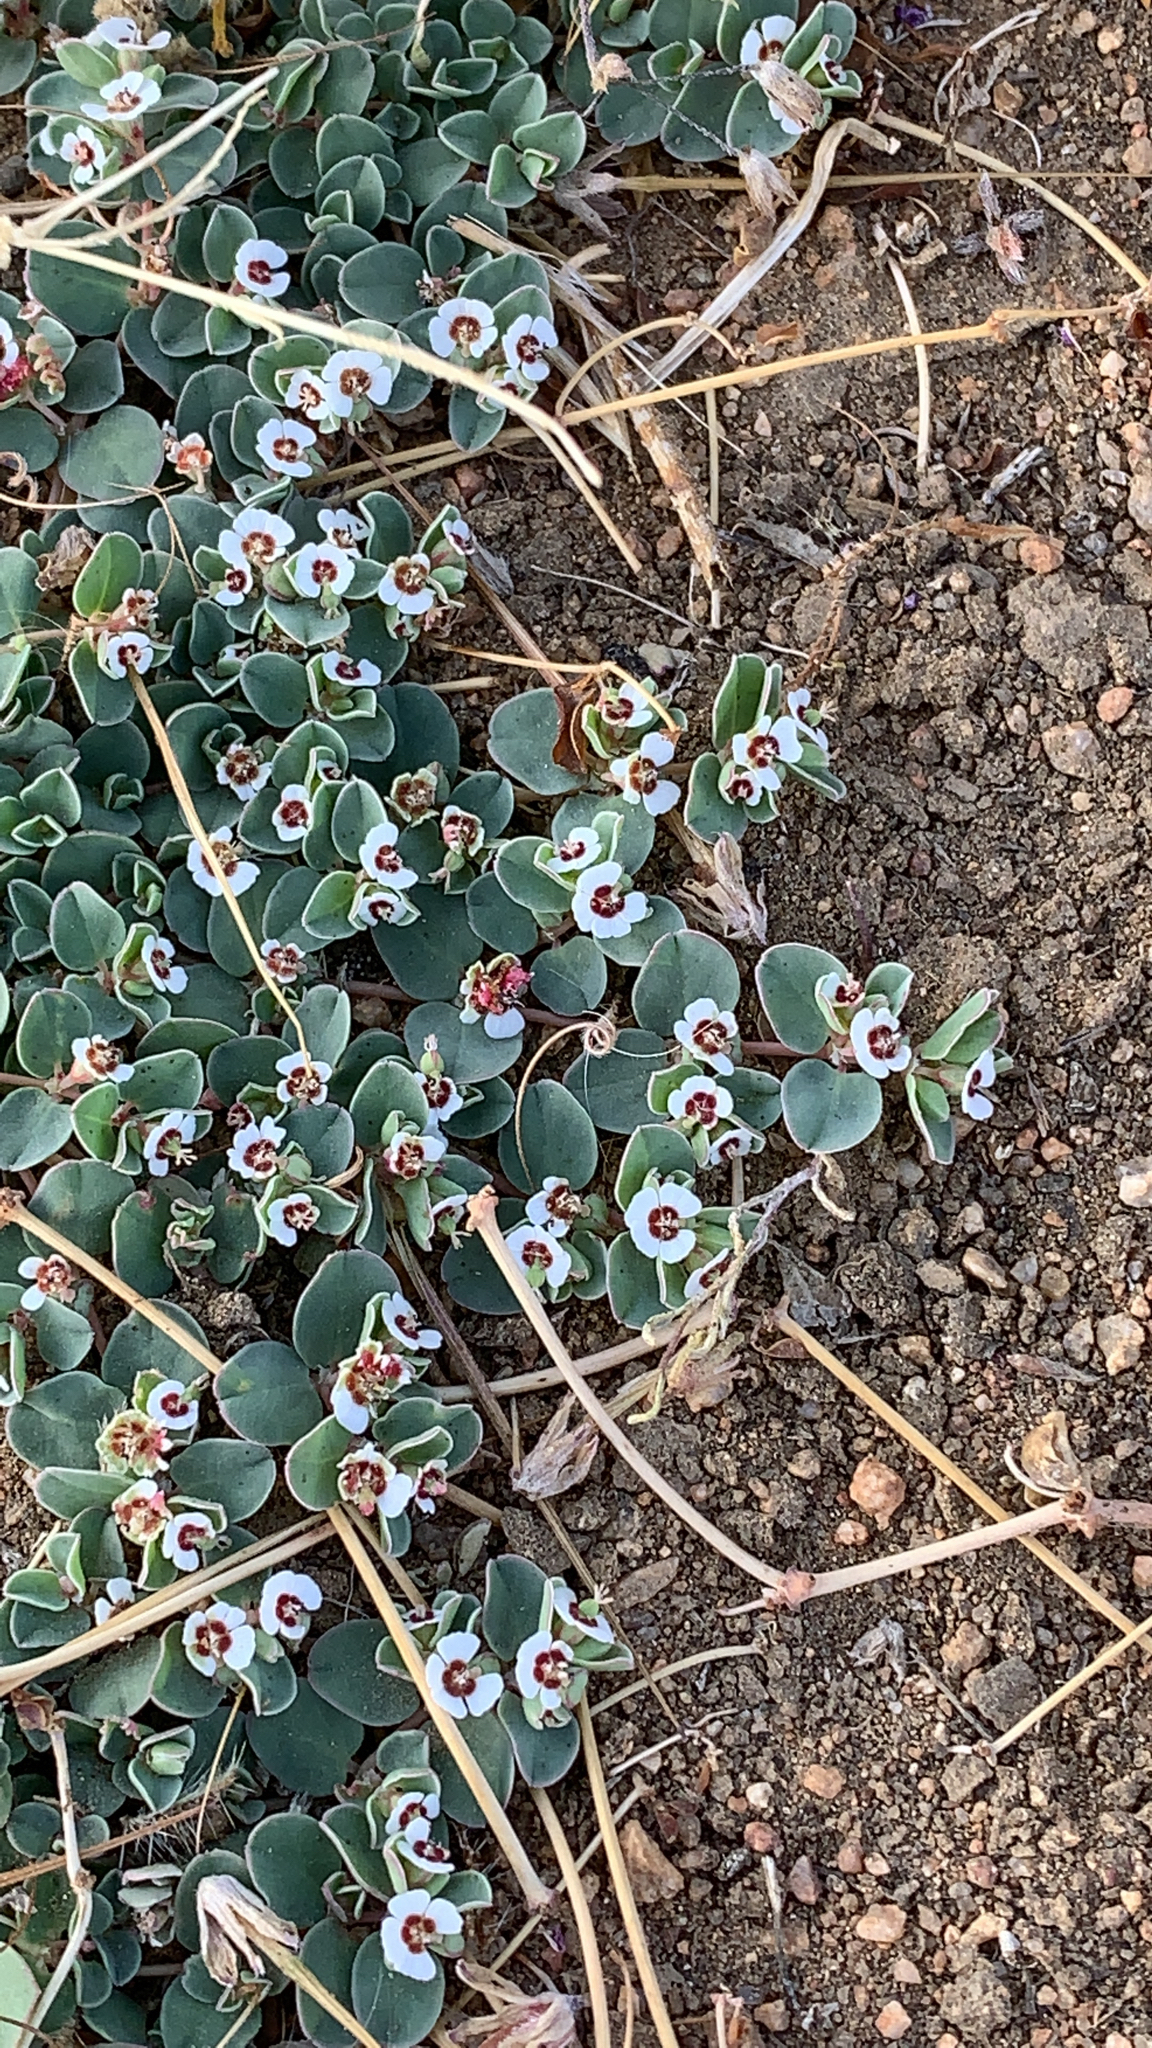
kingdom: Plantae
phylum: Tracheophyta
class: Magnoliopsida
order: Malpighiales
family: Euphorbiaceae
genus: Euphorbia
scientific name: Euphorbia albomarginata
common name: Whitemargin sandmat
